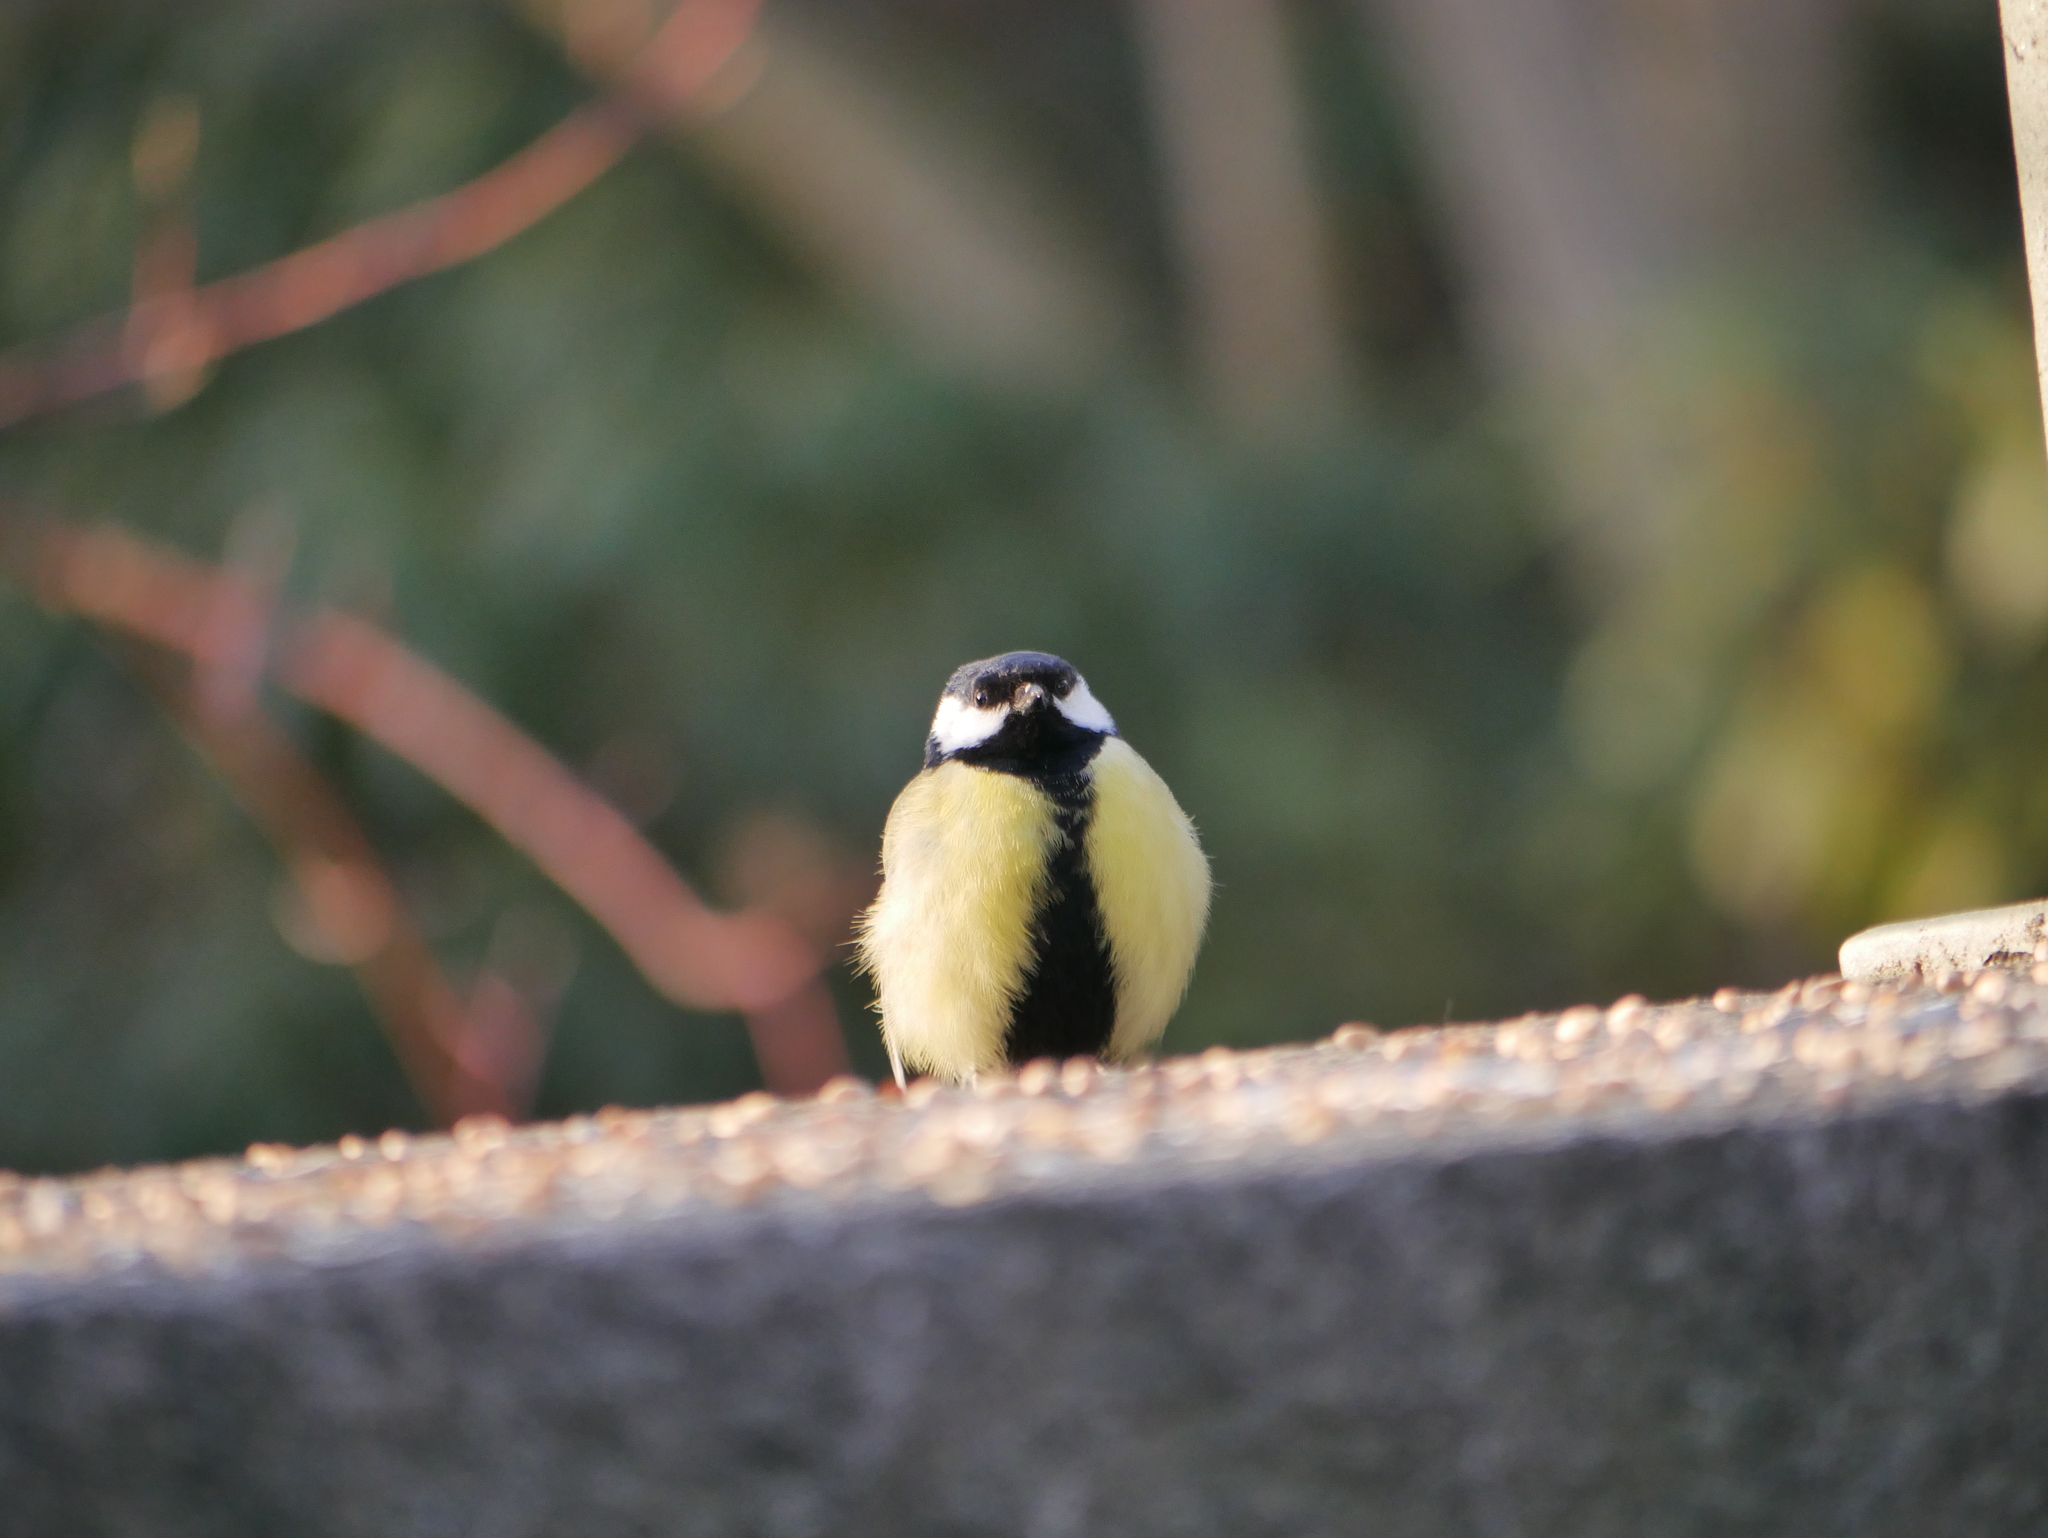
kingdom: Animalia
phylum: Chordata
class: Aves
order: Passeriformes
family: Paridae
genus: Parus
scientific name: Parus major
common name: Great tit
